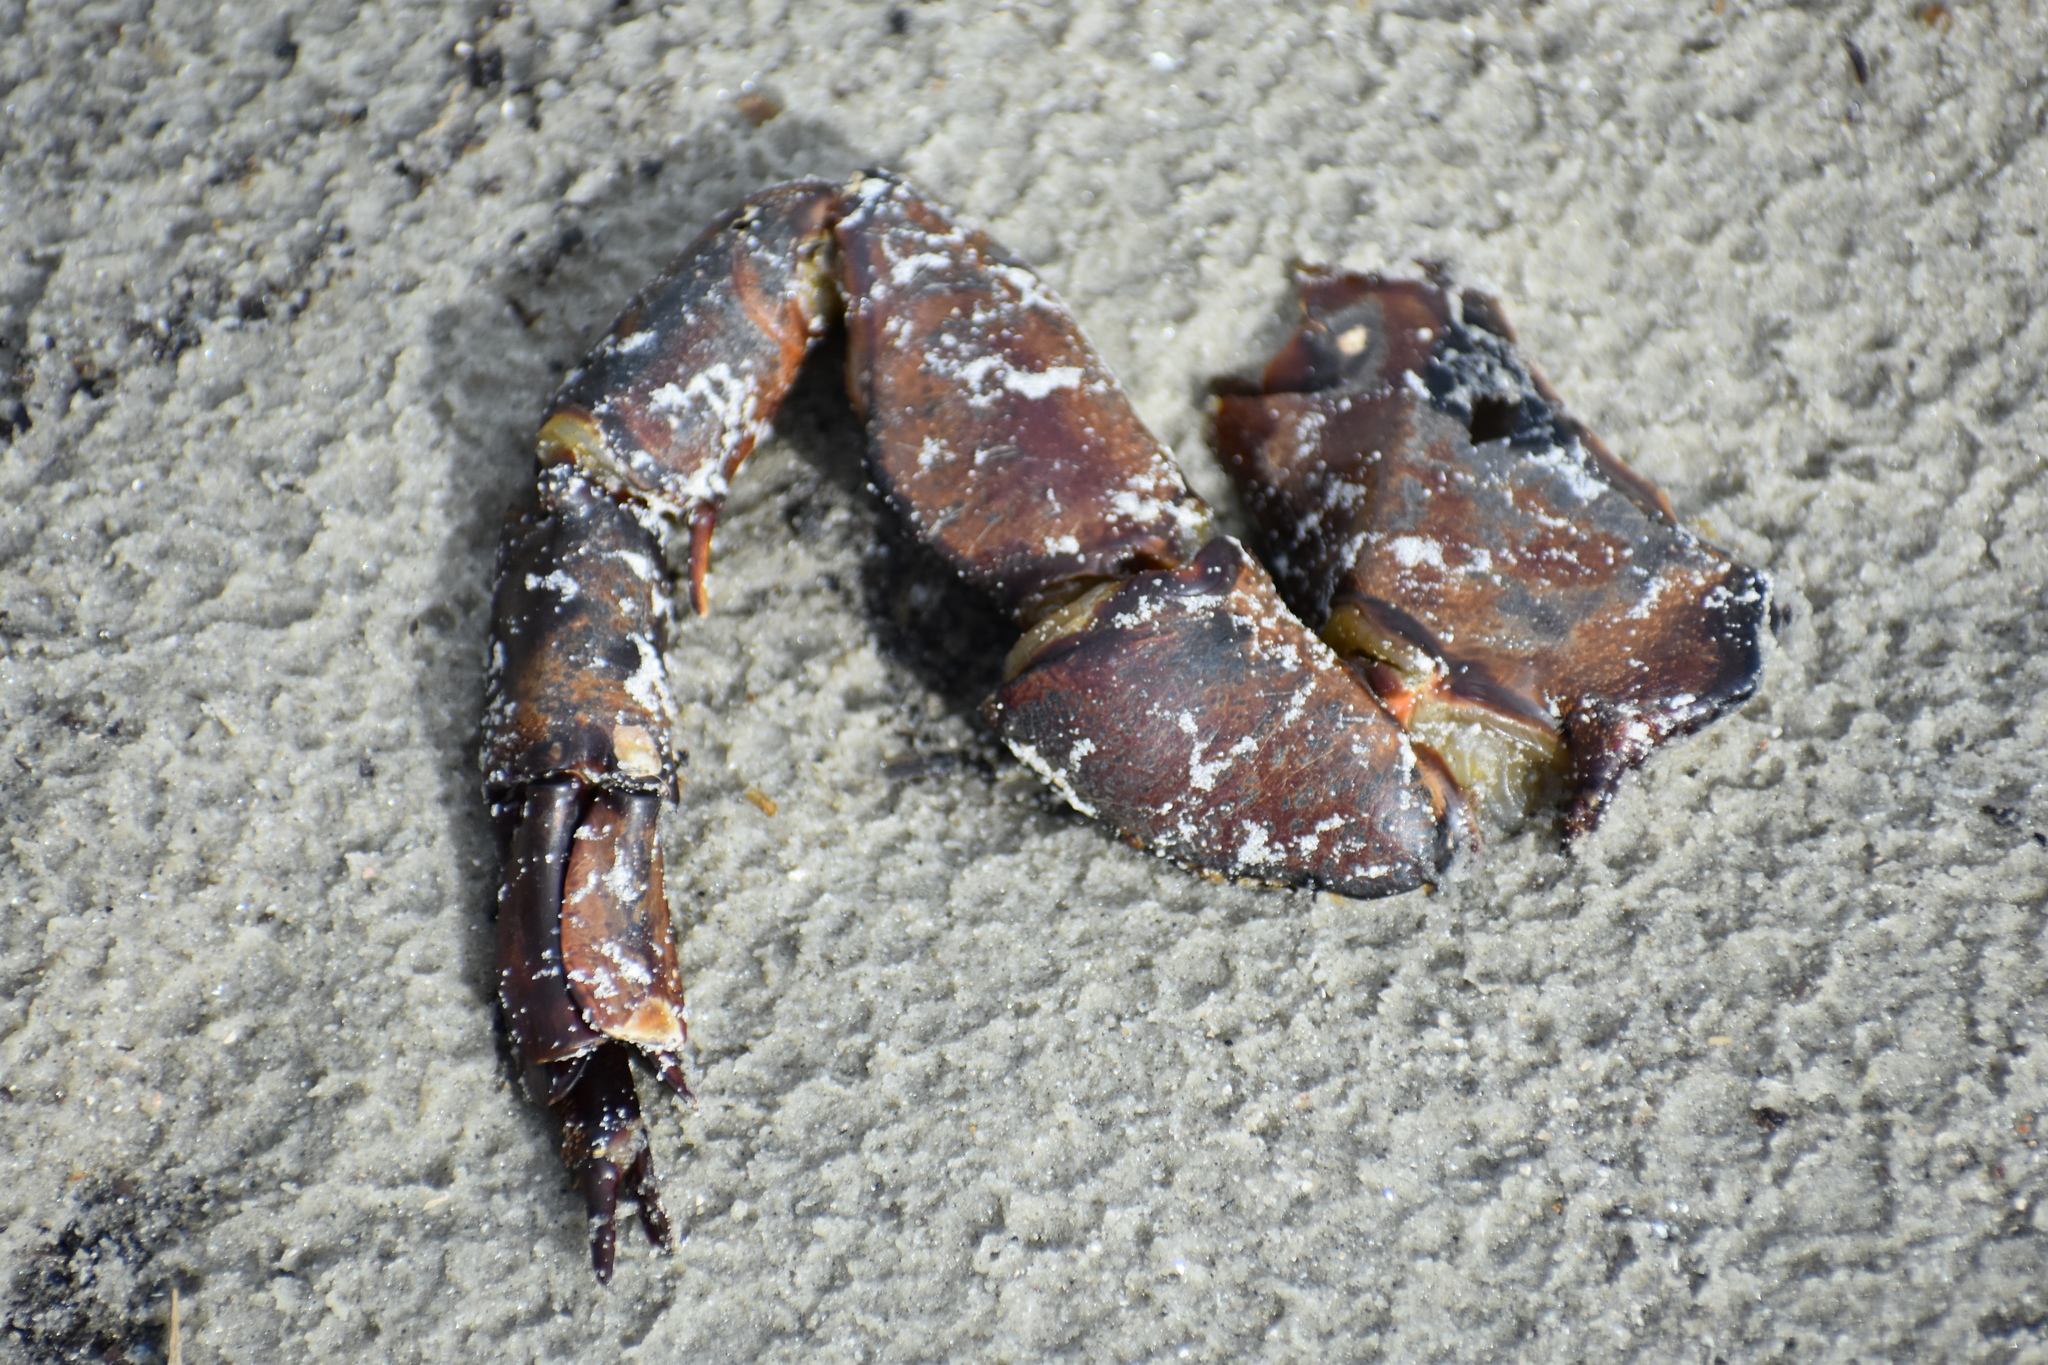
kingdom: Animalia
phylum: Arthropoda
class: Merostomata
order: Xiphosurida
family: Limulidae
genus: Limulus
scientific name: Limulus polyphemus
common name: Horseshoe crab
